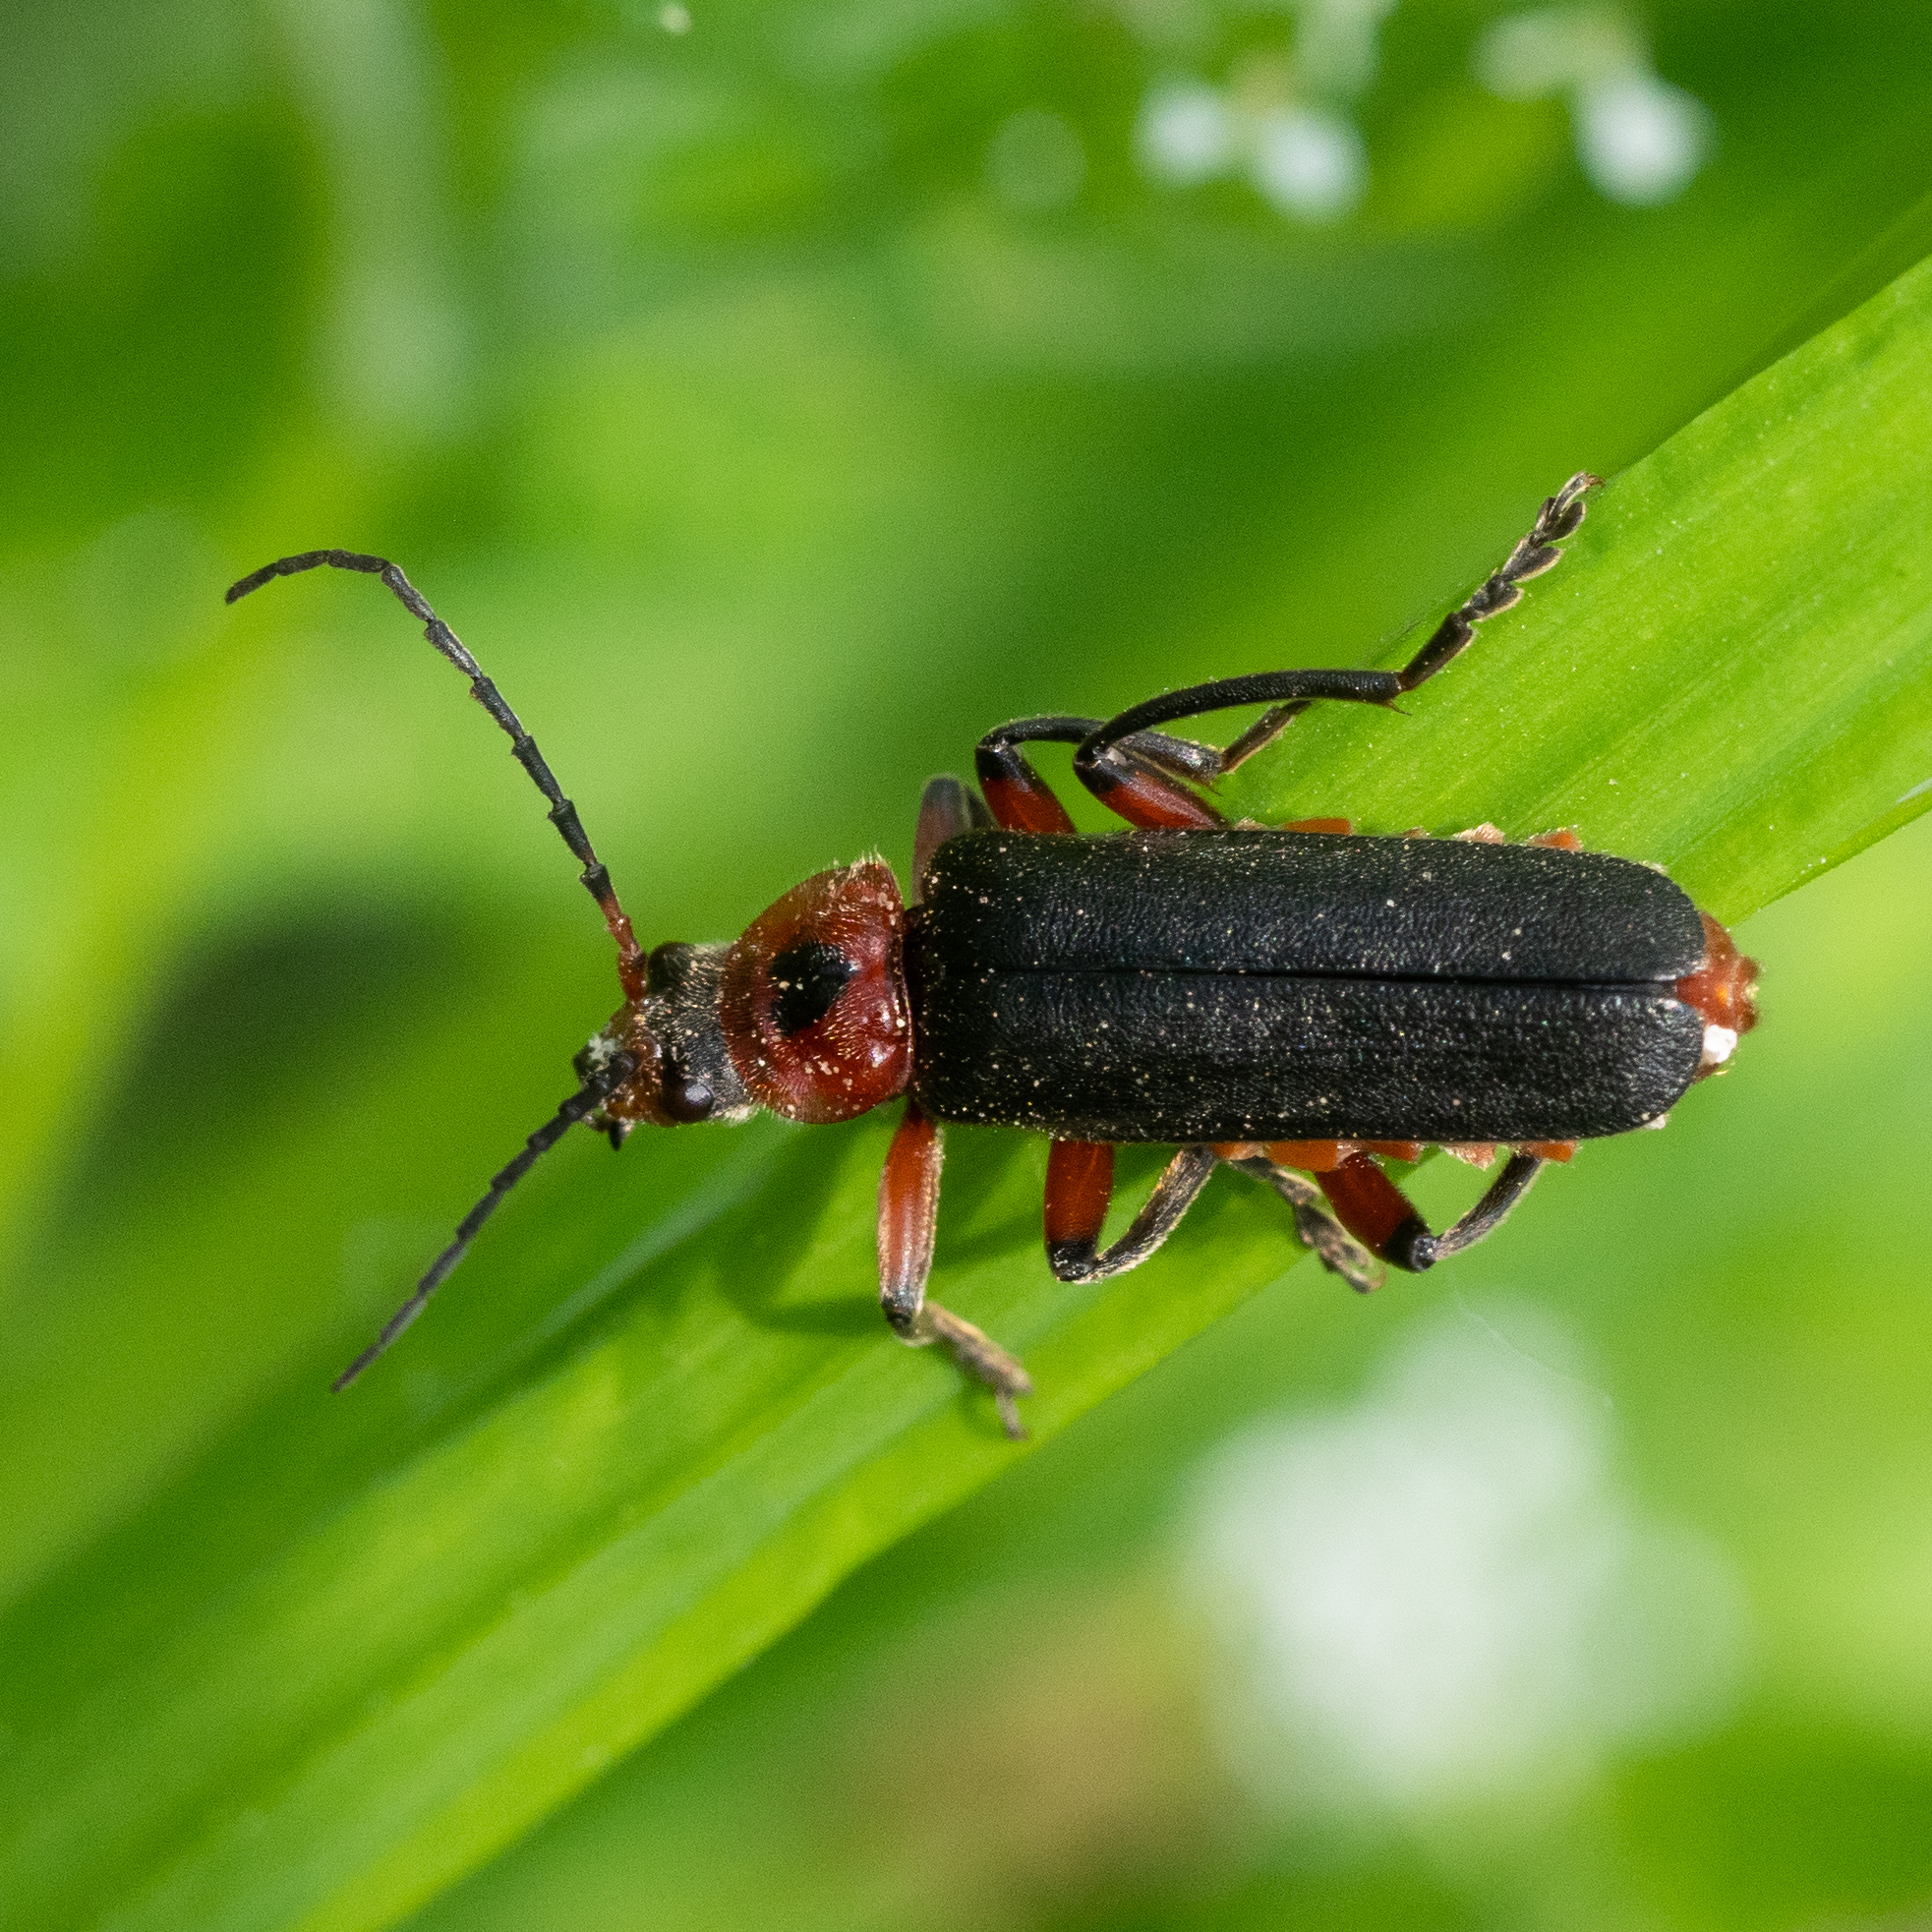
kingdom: Animalia
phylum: Arthropoda
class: Insecta
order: Coleoptera
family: Cantharidae
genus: Cantharis
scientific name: Cantharis rustica
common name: Soldier beetle
